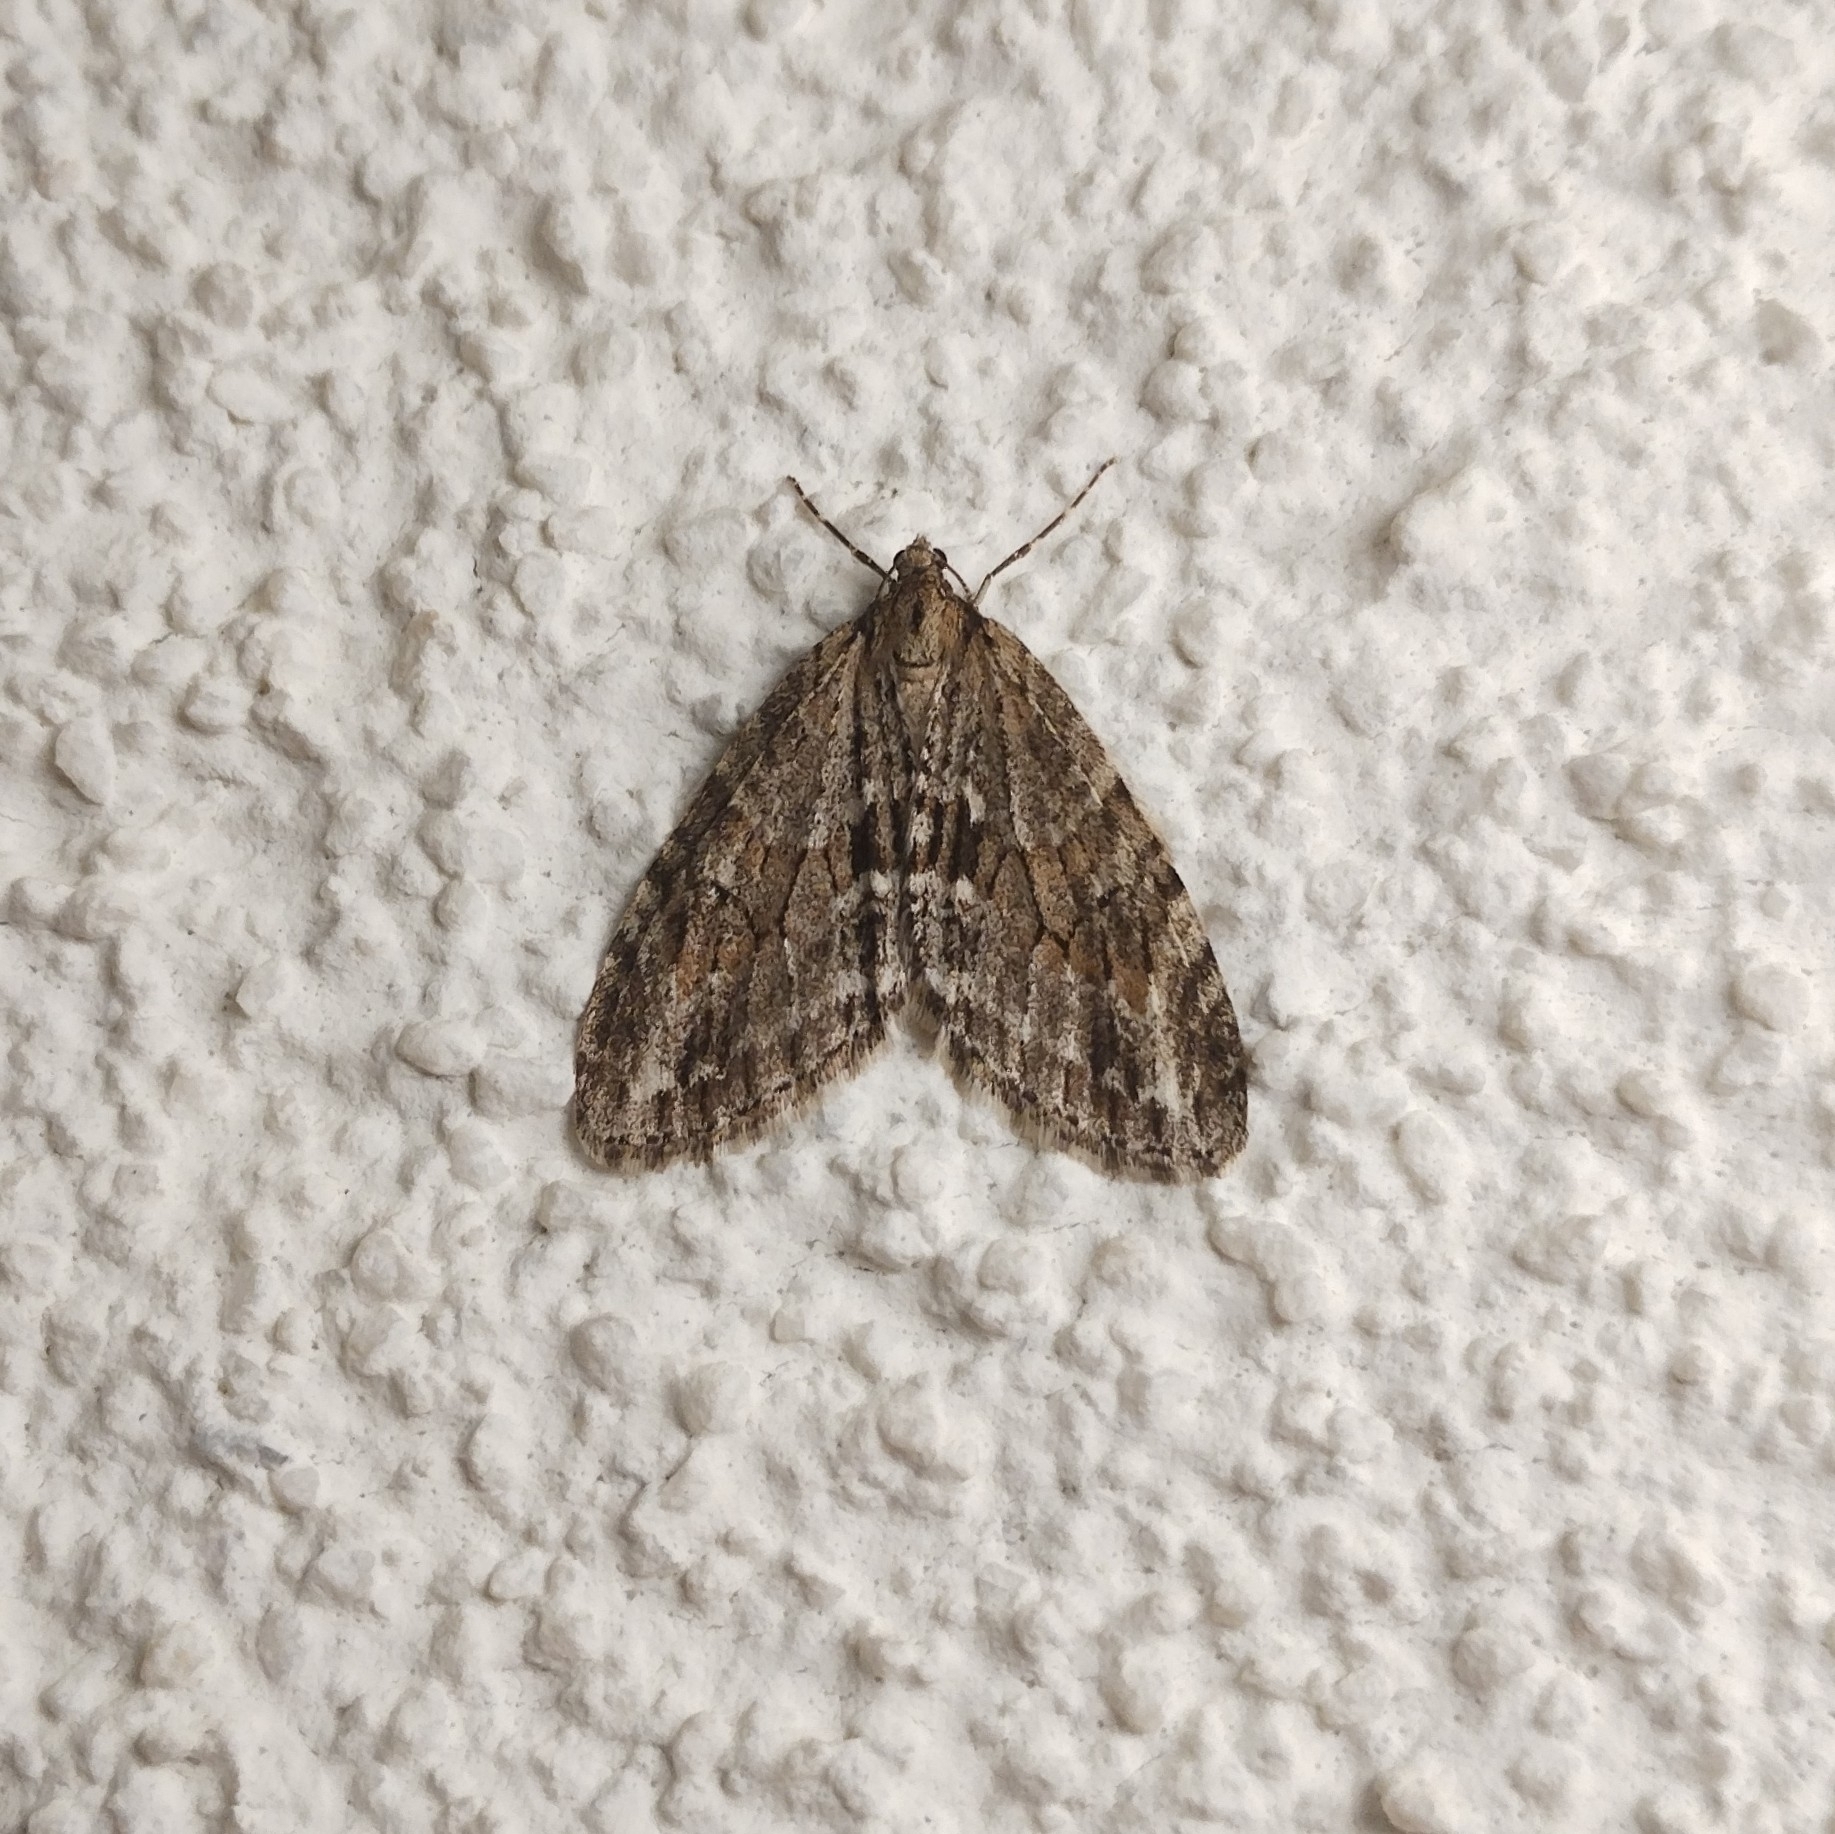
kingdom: Animalia
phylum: Arthropoda
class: Insecta
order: Lepidoptera
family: Geometridae
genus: Trichopteryx
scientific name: Trichopteryx polycommata
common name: Barred tooth-striped
